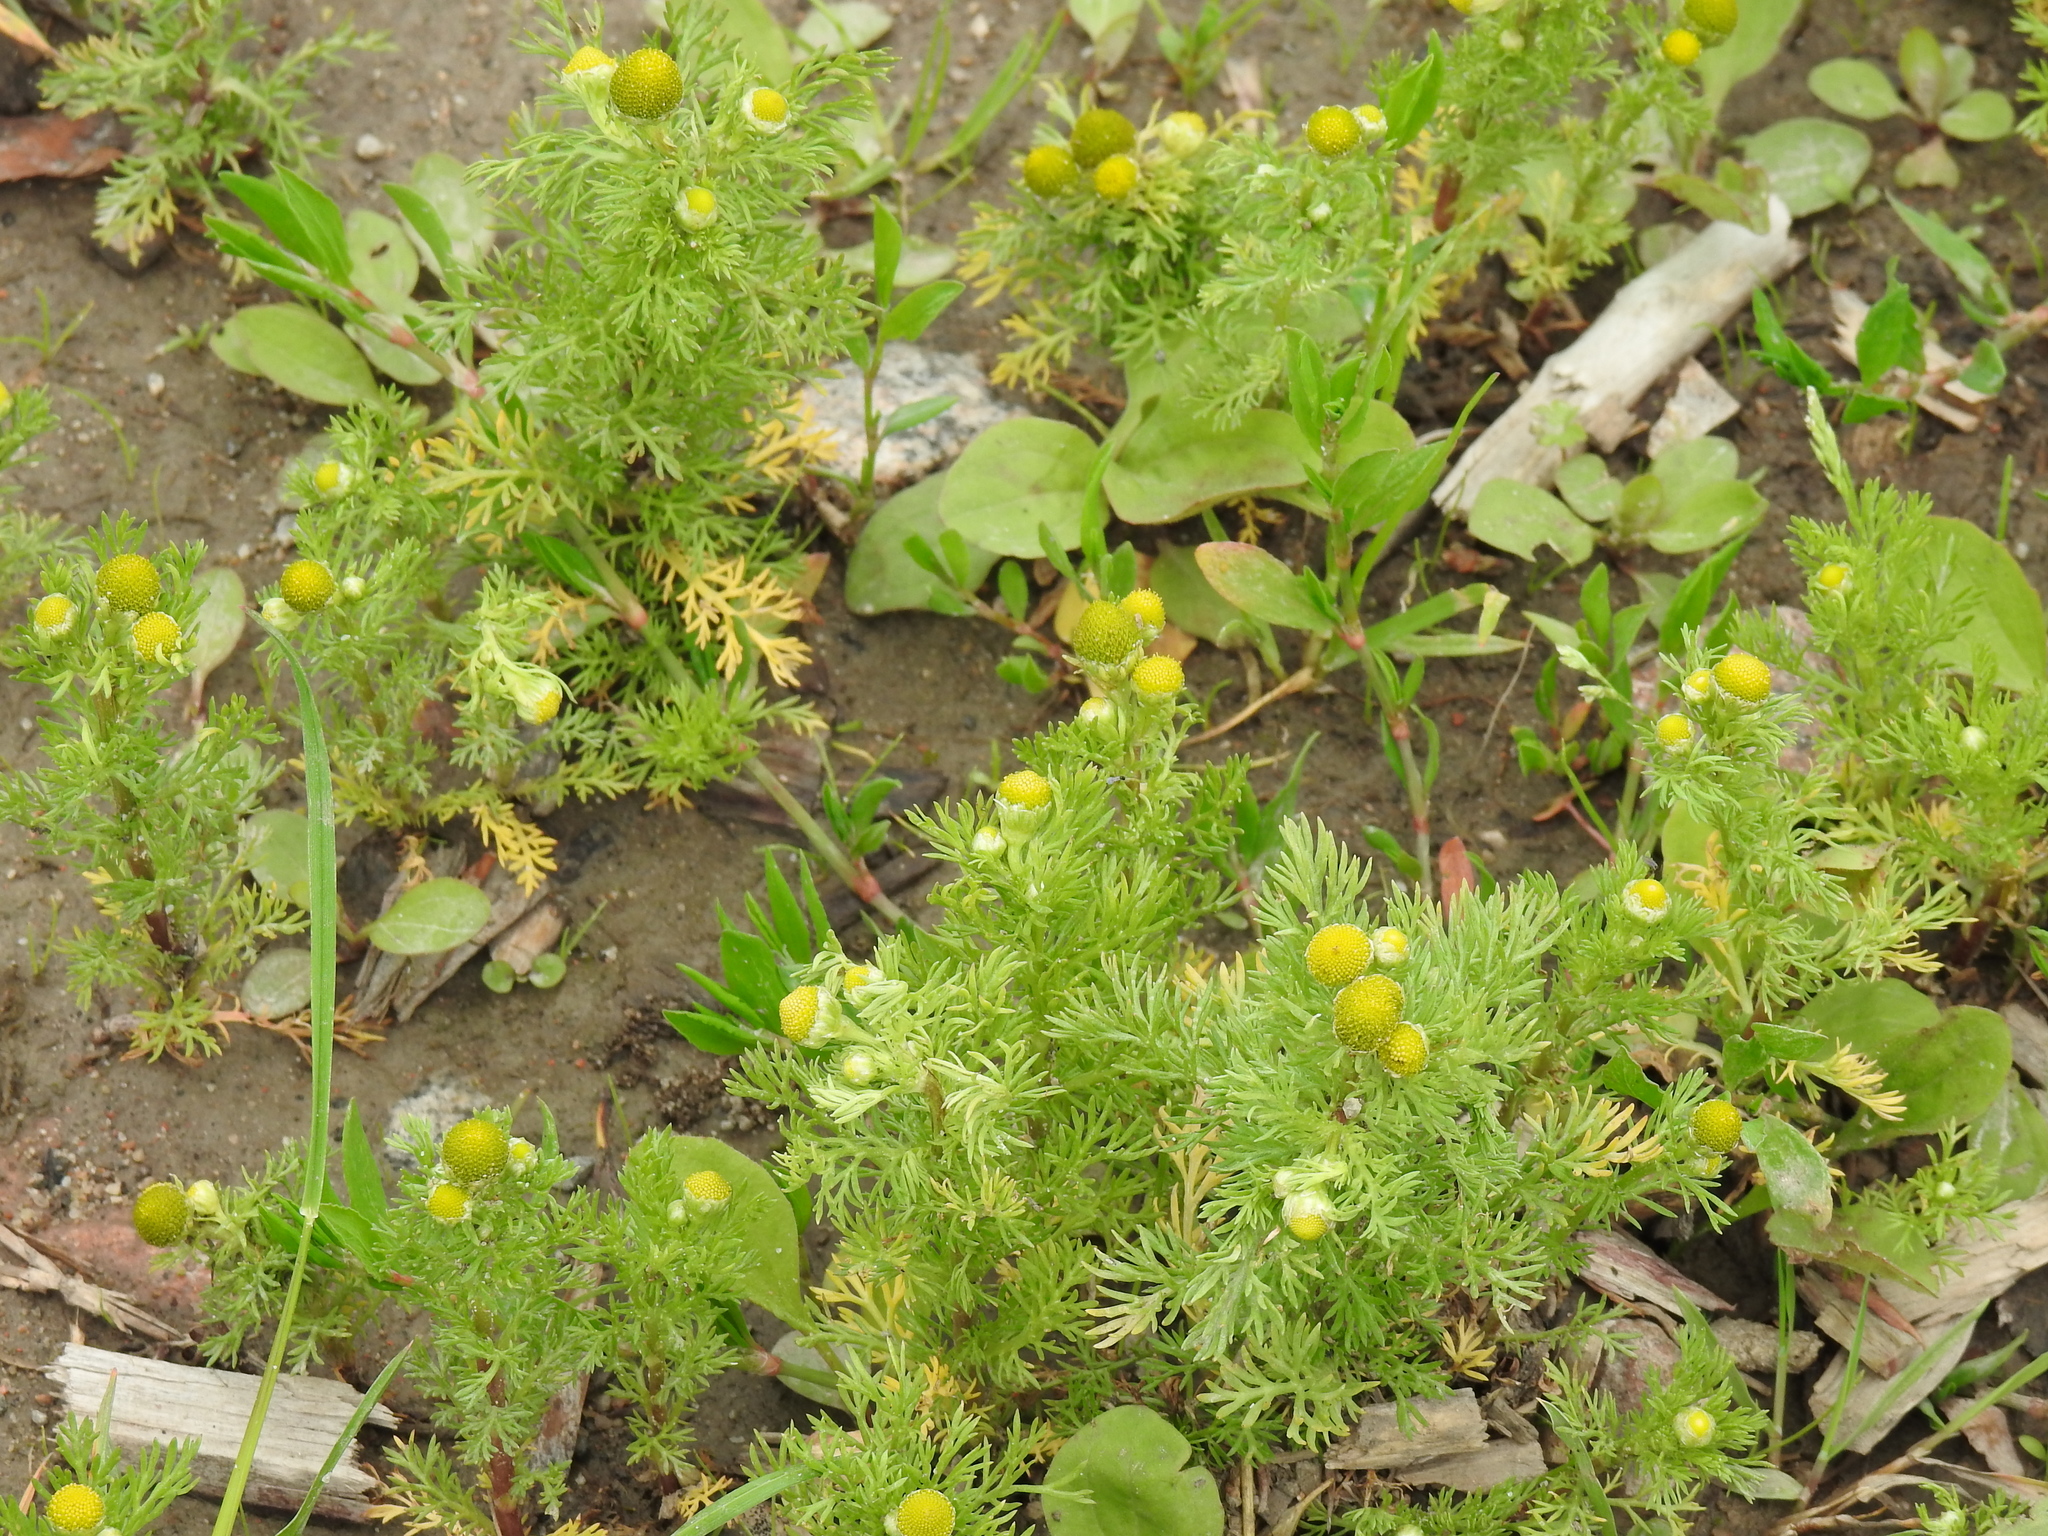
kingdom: Plantae
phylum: Tracheophyta
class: Magnoliopsida
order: Asterales
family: Asteraceae
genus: Matricaria
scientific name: Matricaria discoidea
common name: Disc mayweed
